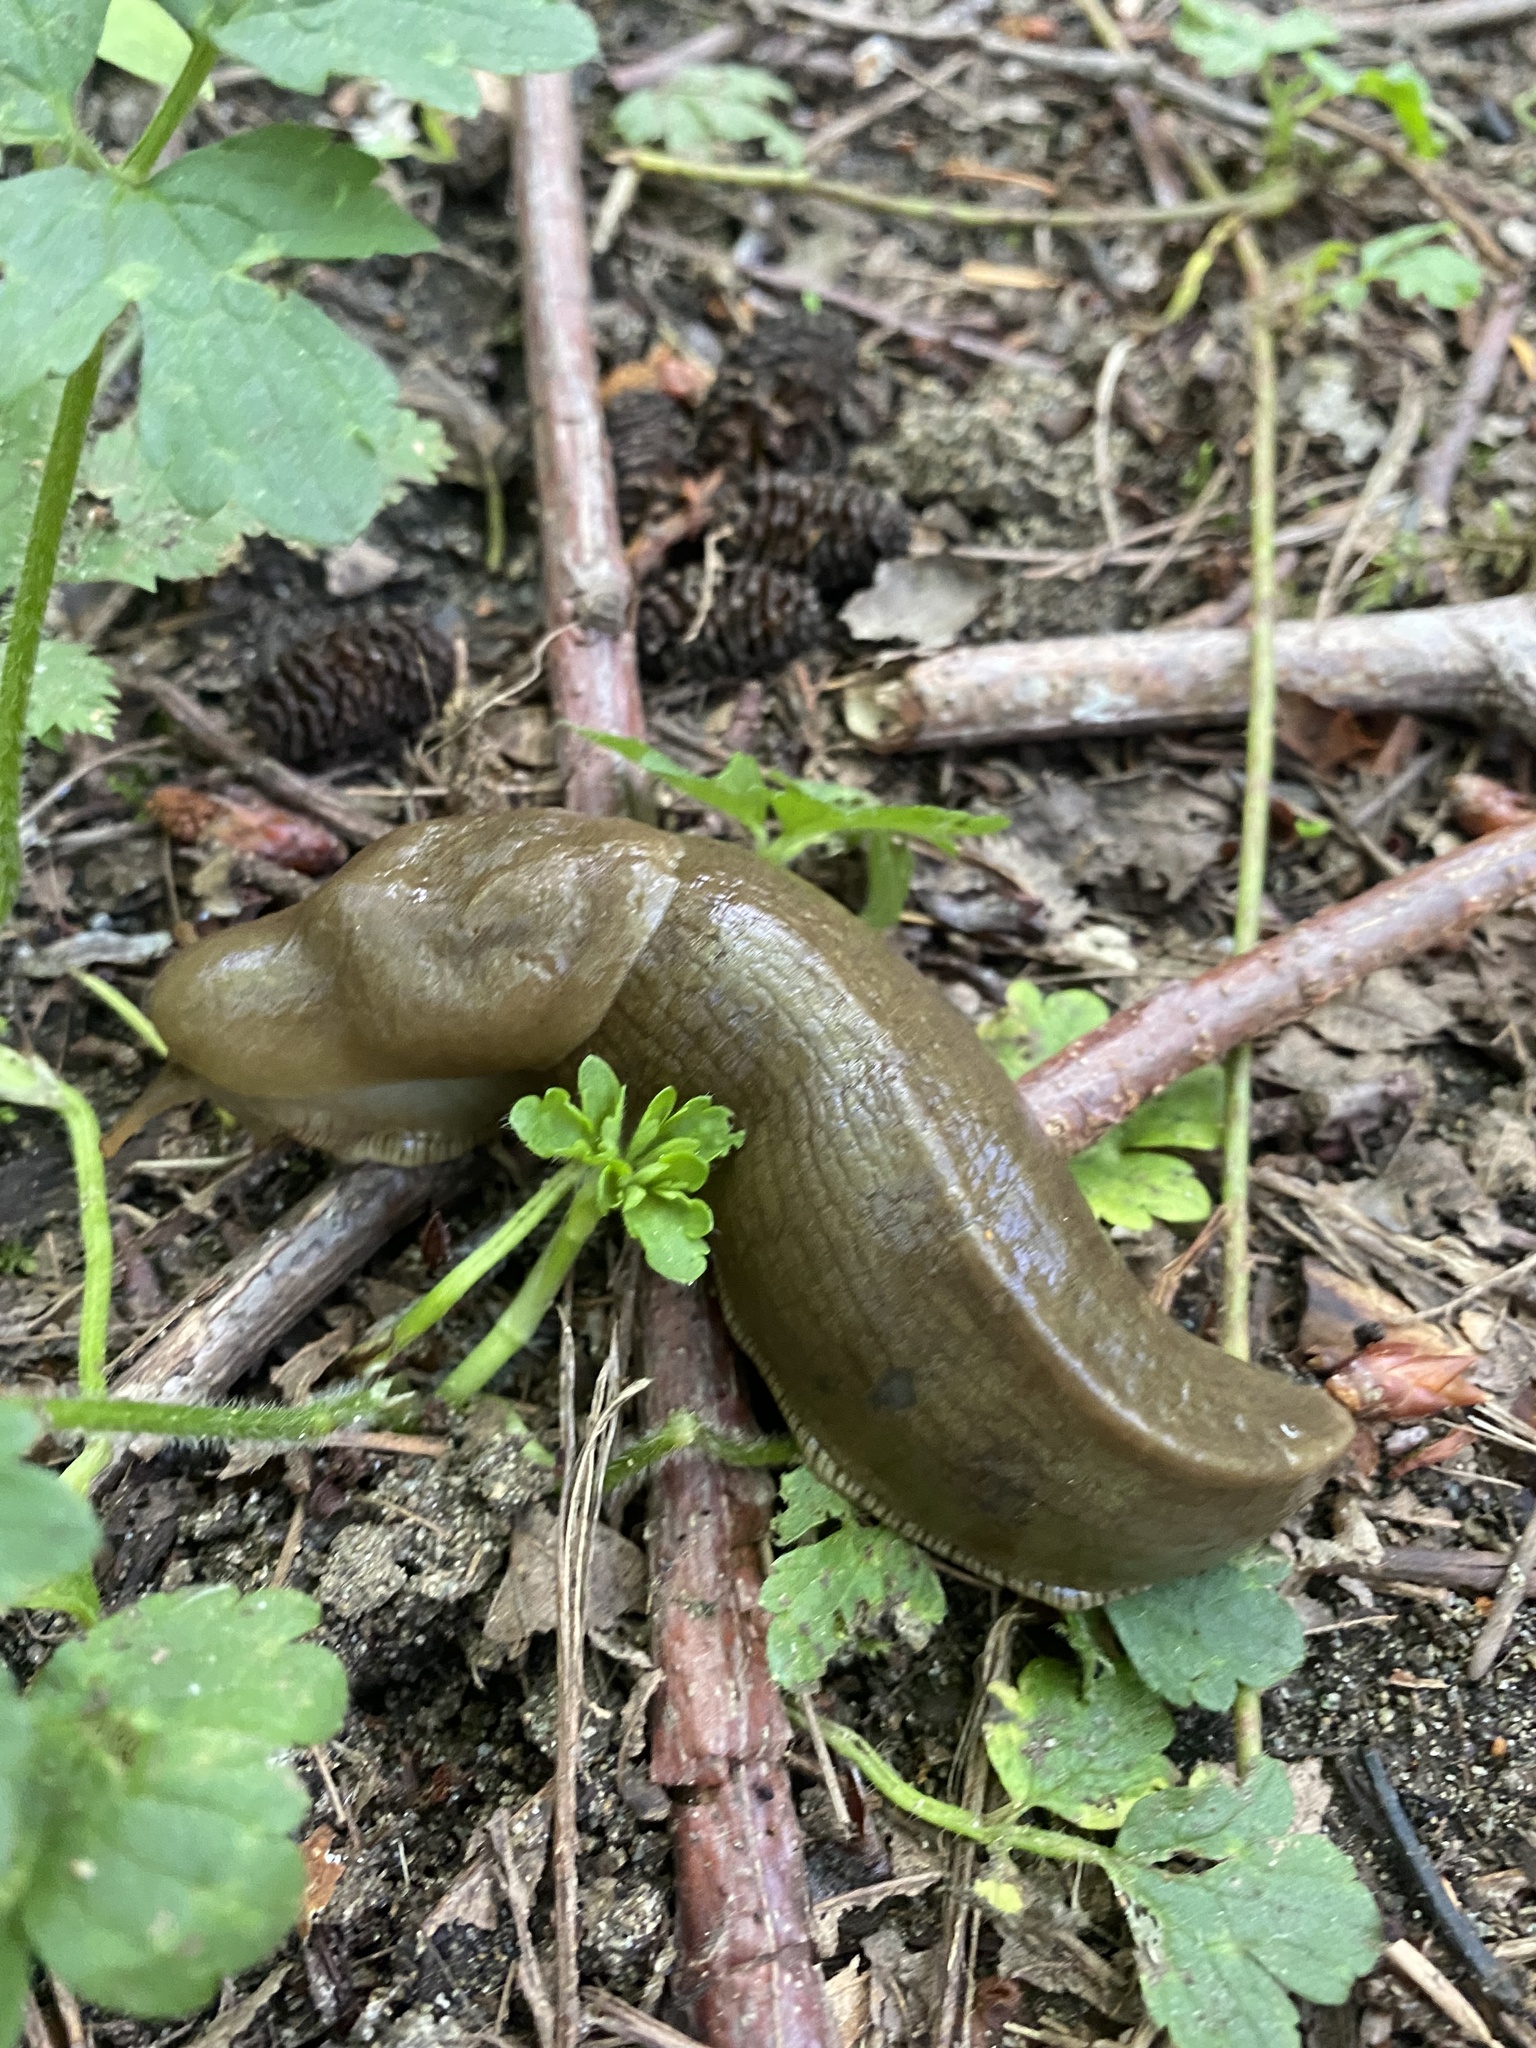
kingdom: Animalia
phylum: Mollusca
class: Gastropoda
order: Stylommatophora
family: Ariolimacidae
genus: Ariolimax
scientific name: Ariolimax columbianus
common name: Pacific banana slug
